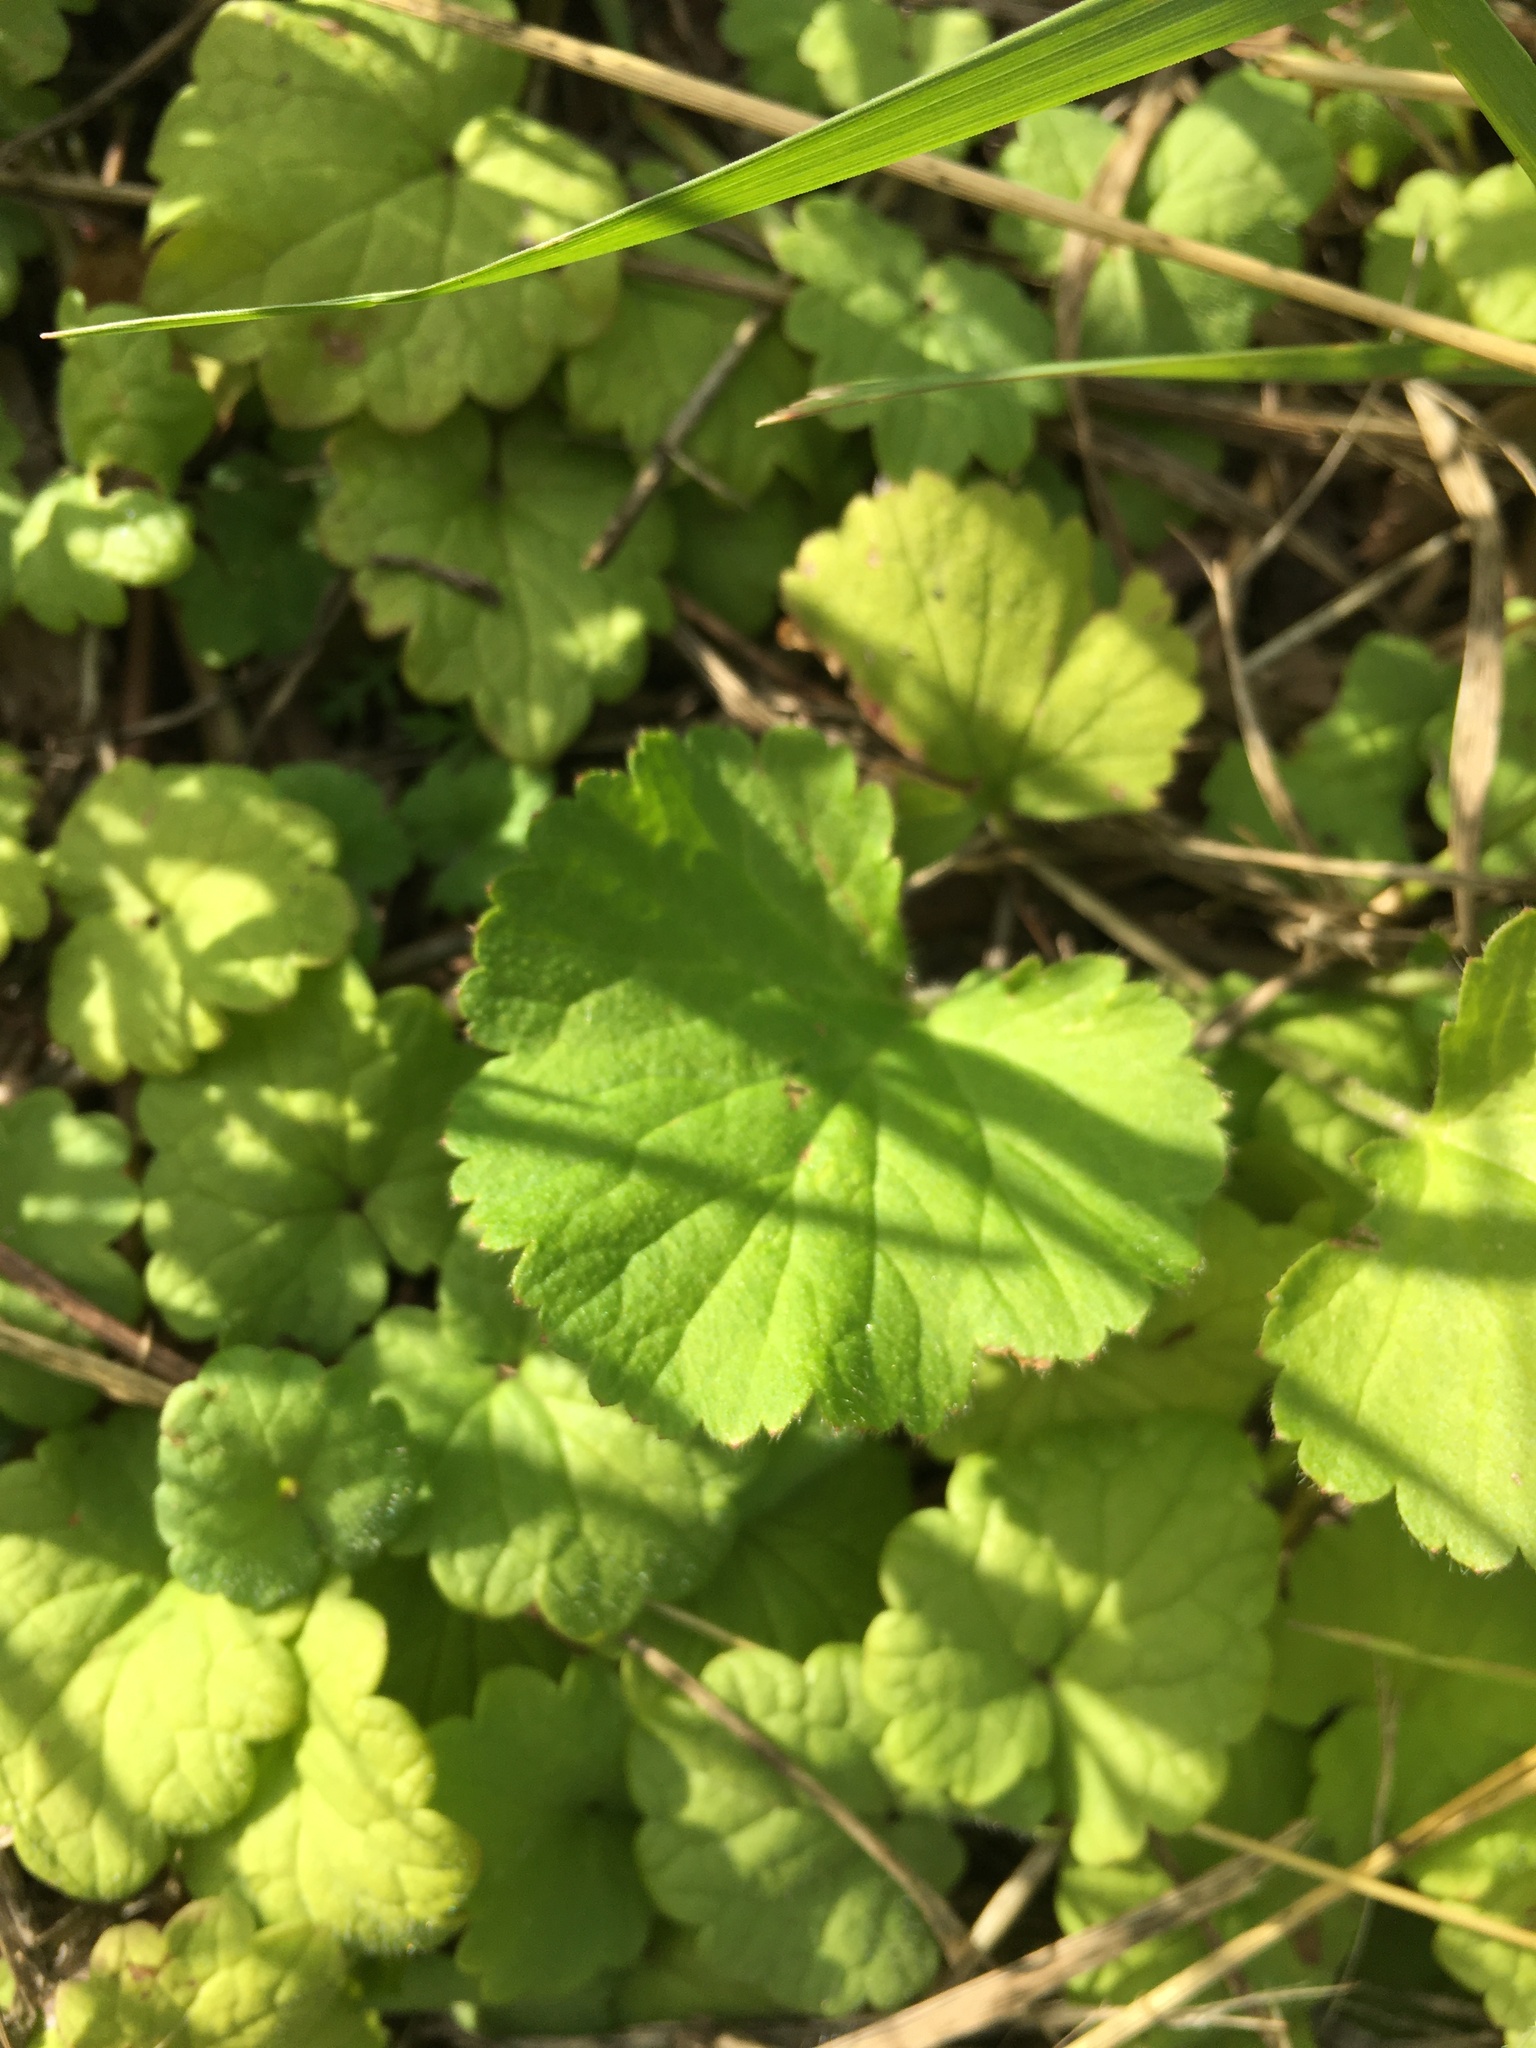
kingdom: Plantae
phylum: Tracheophyta
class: Magnoliopsida
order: Lamiales
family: Lamiaceae
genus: Glechoma
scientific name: Glechoma hederacea
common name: Ground ivy
